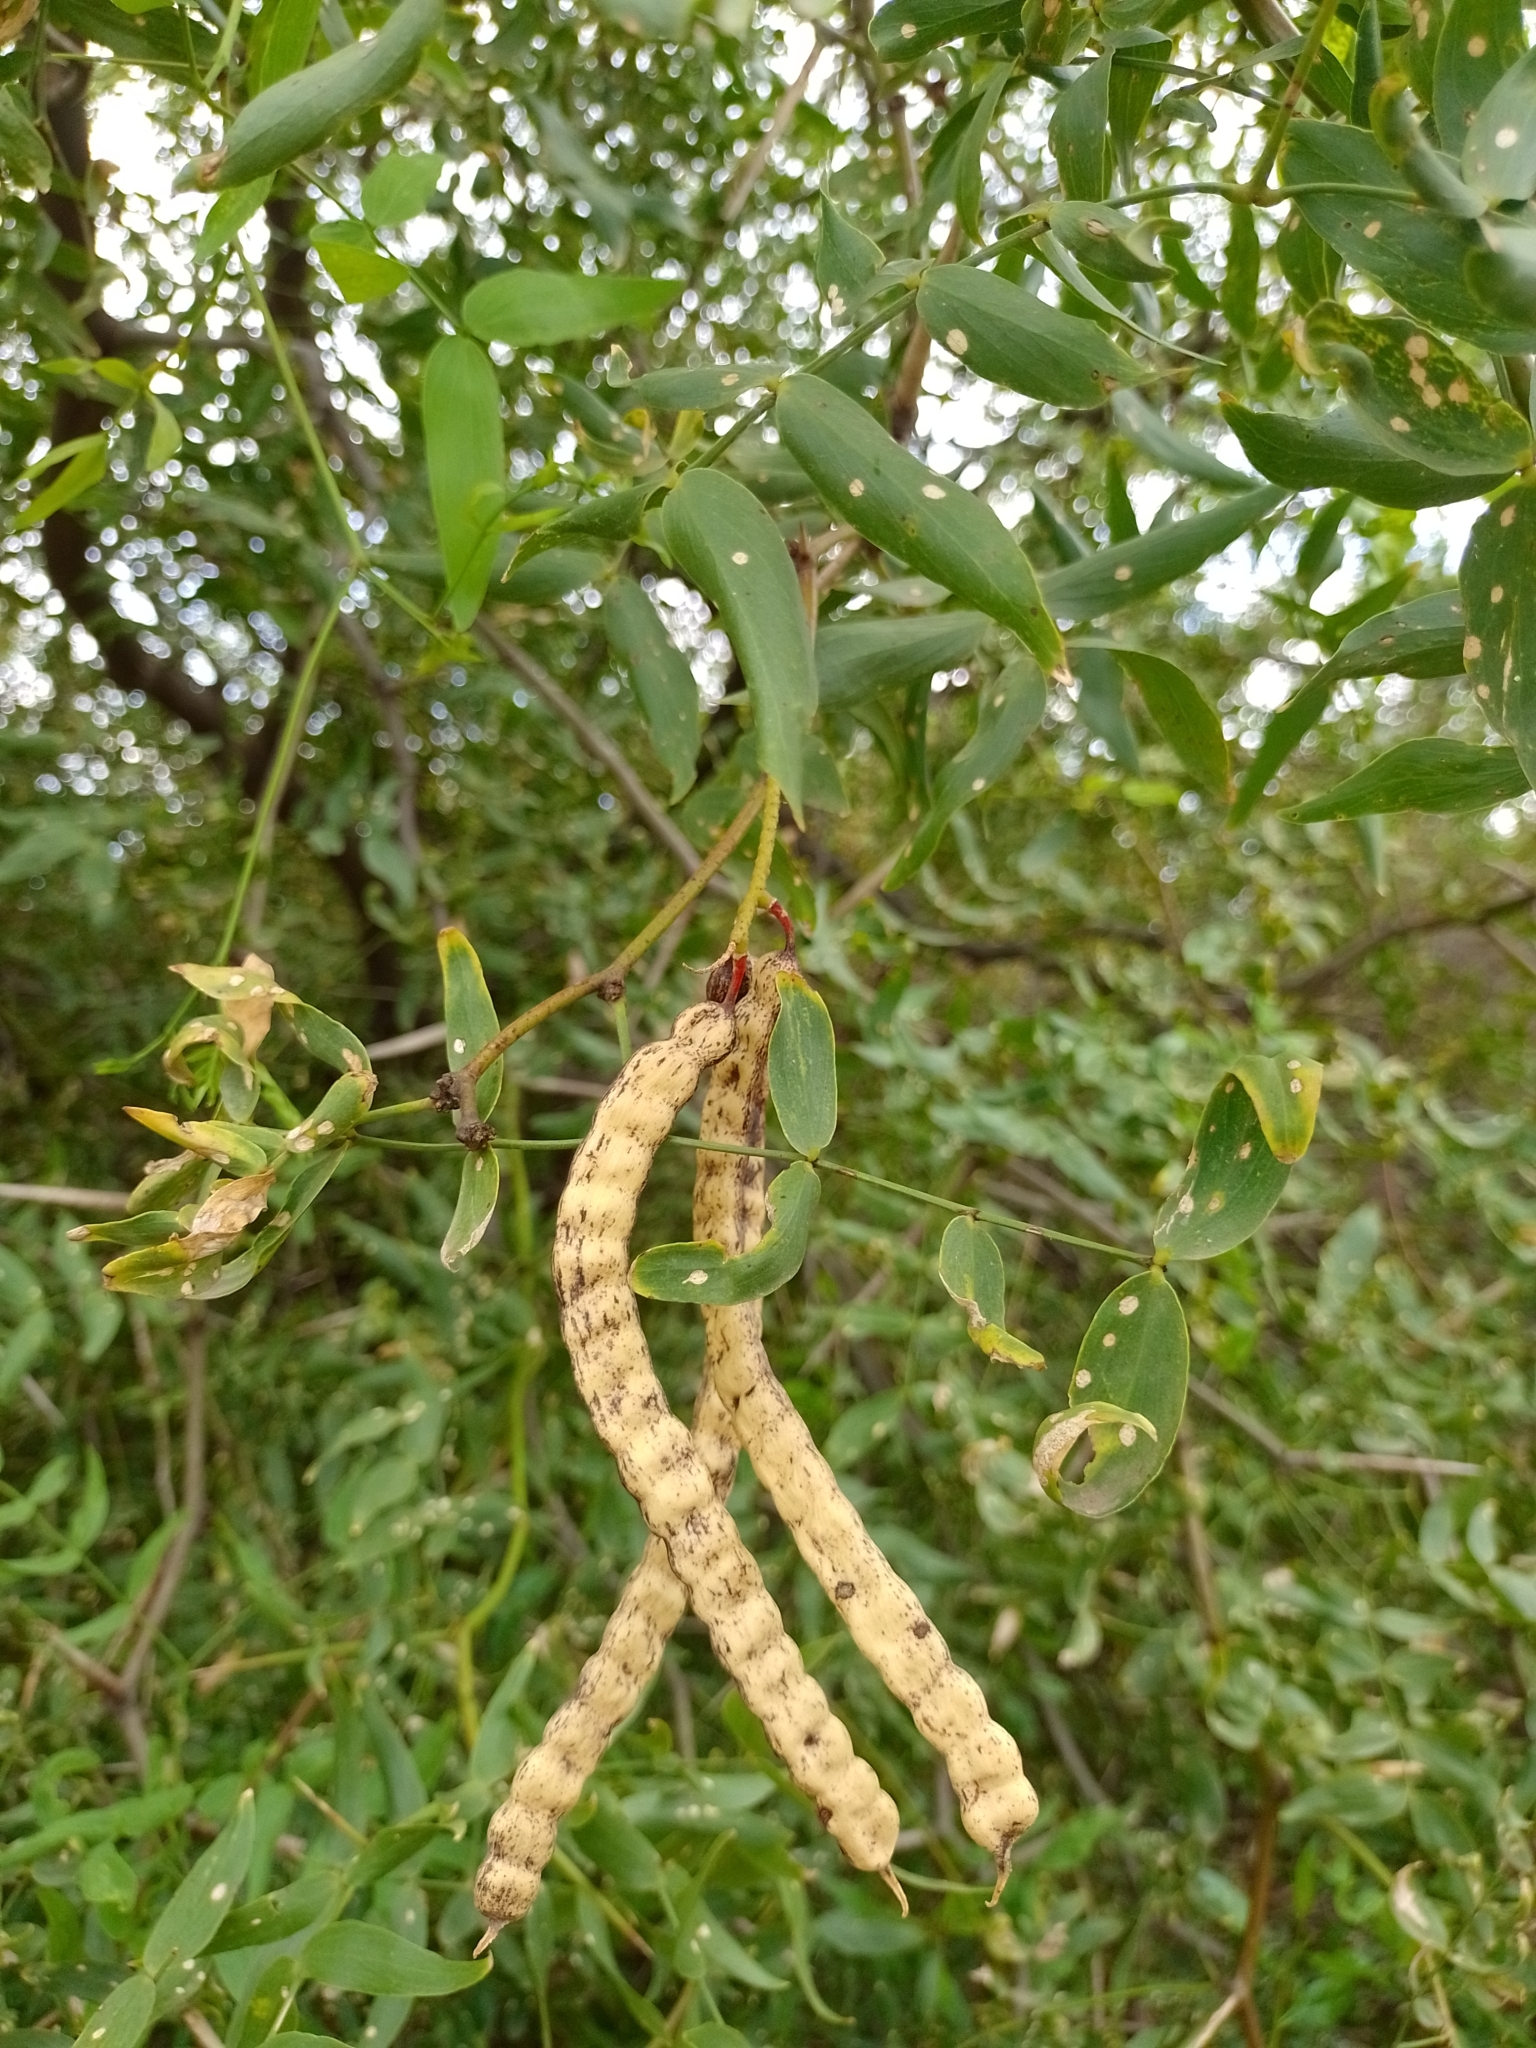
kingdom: Plantae
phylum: Tracheophyta
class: Magnoliopsida
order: Fabales
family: Fabaceae
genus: Prosopis
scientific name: Prosopis ruscifolia
